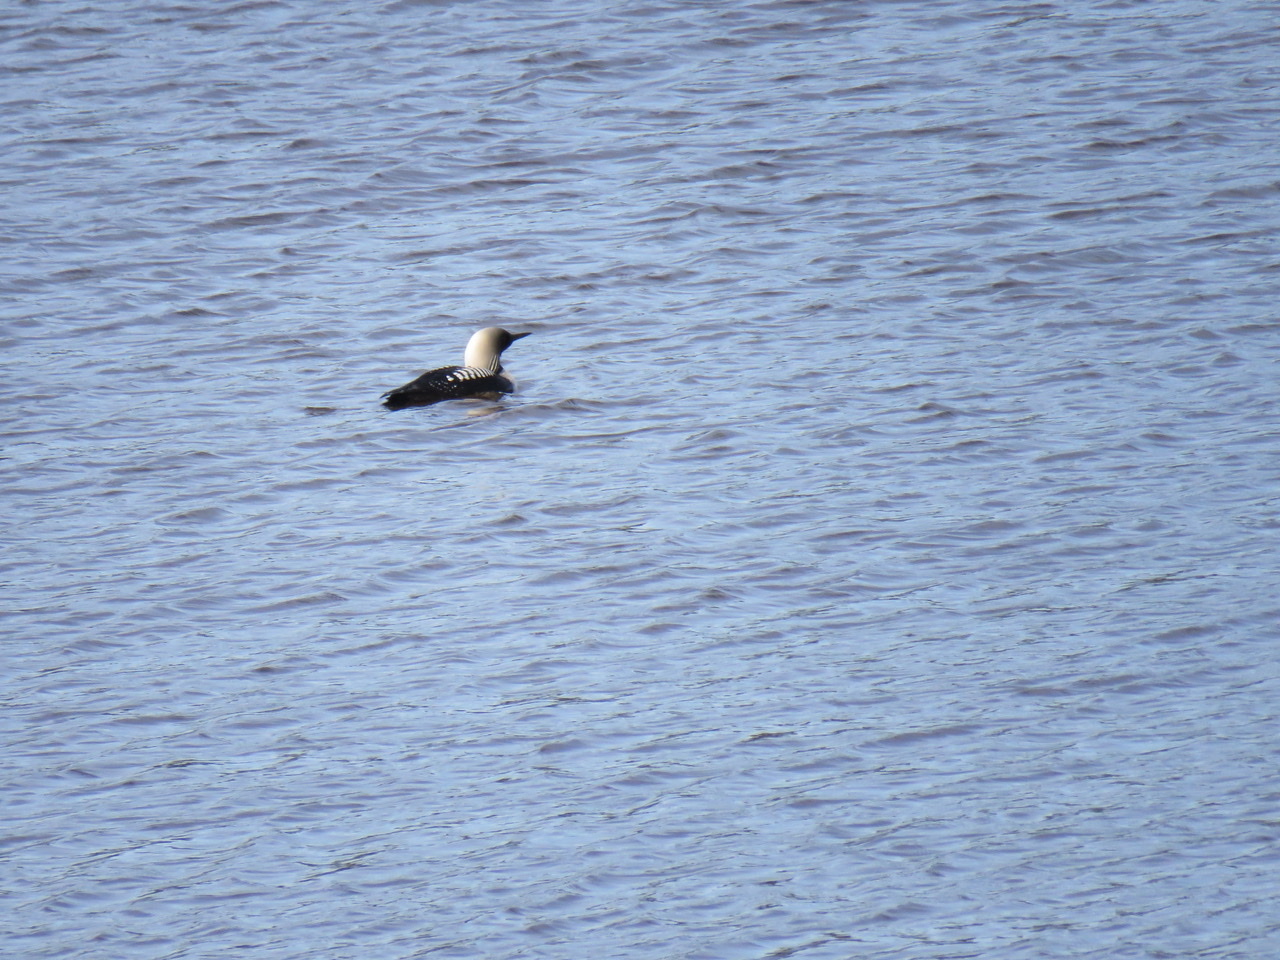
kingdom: Animalia
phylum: Chordata
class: Aves
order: Gaviiformes
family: Gaviidae
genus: Gavia
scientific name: Gavia pacifica
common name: Pacific loon
